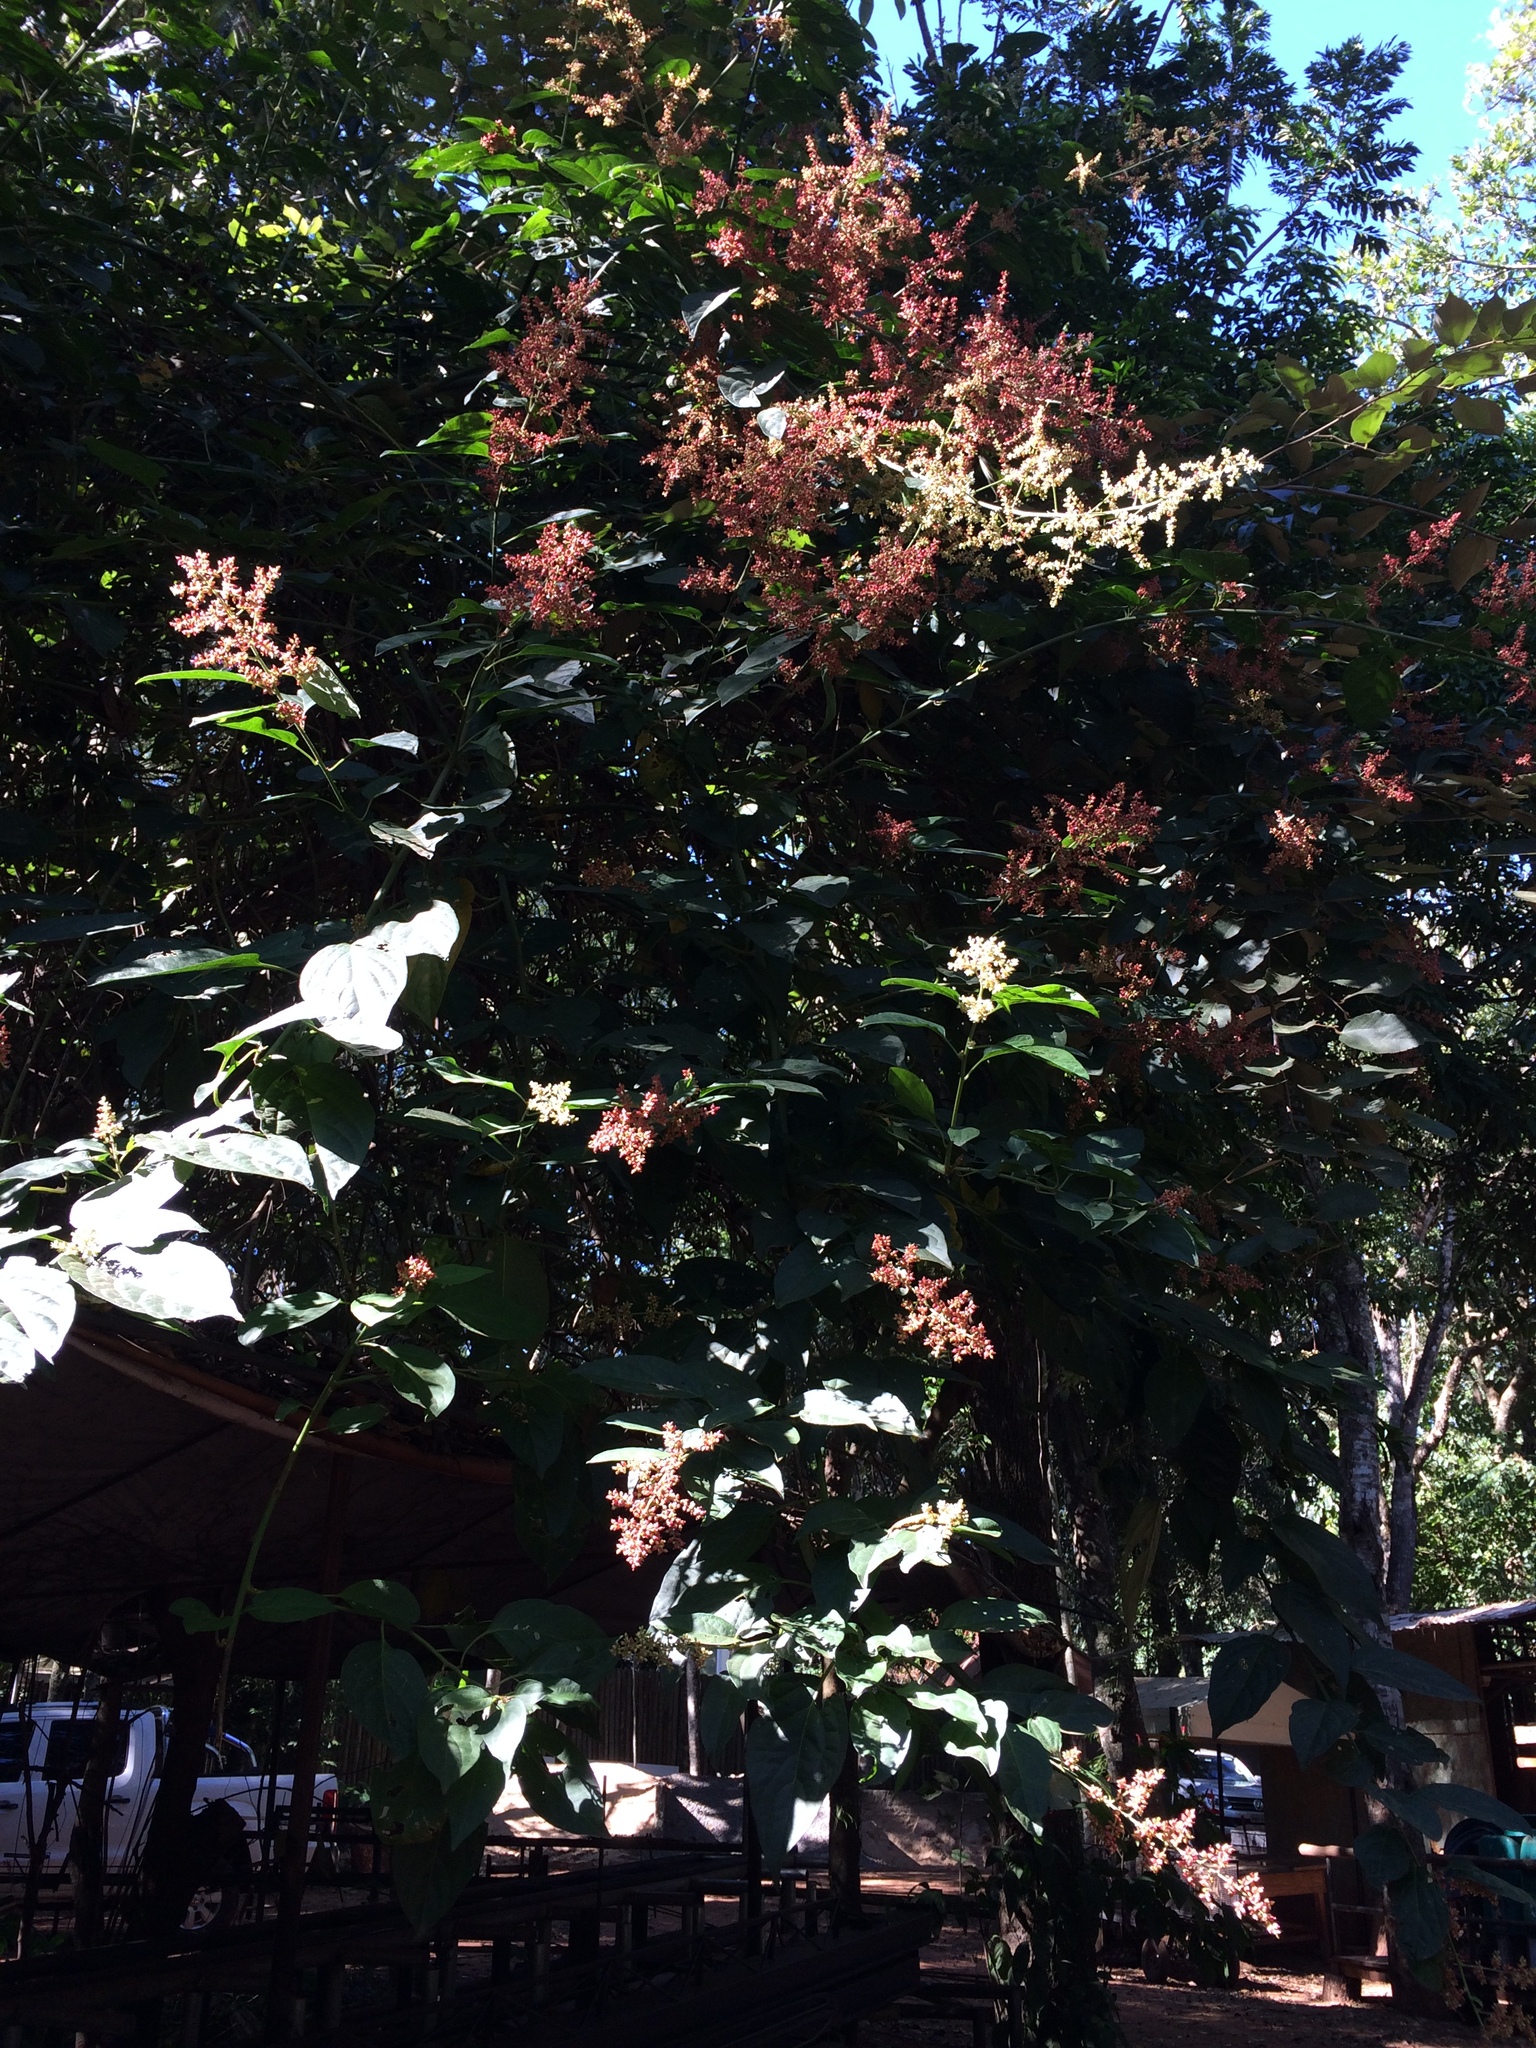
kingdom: Plantae
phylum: Tracheophyta
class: Magnoliopsida
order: Caryophyllales
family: Amaranthaceae
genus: Chamissoa
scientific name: Chamissoa altissima
